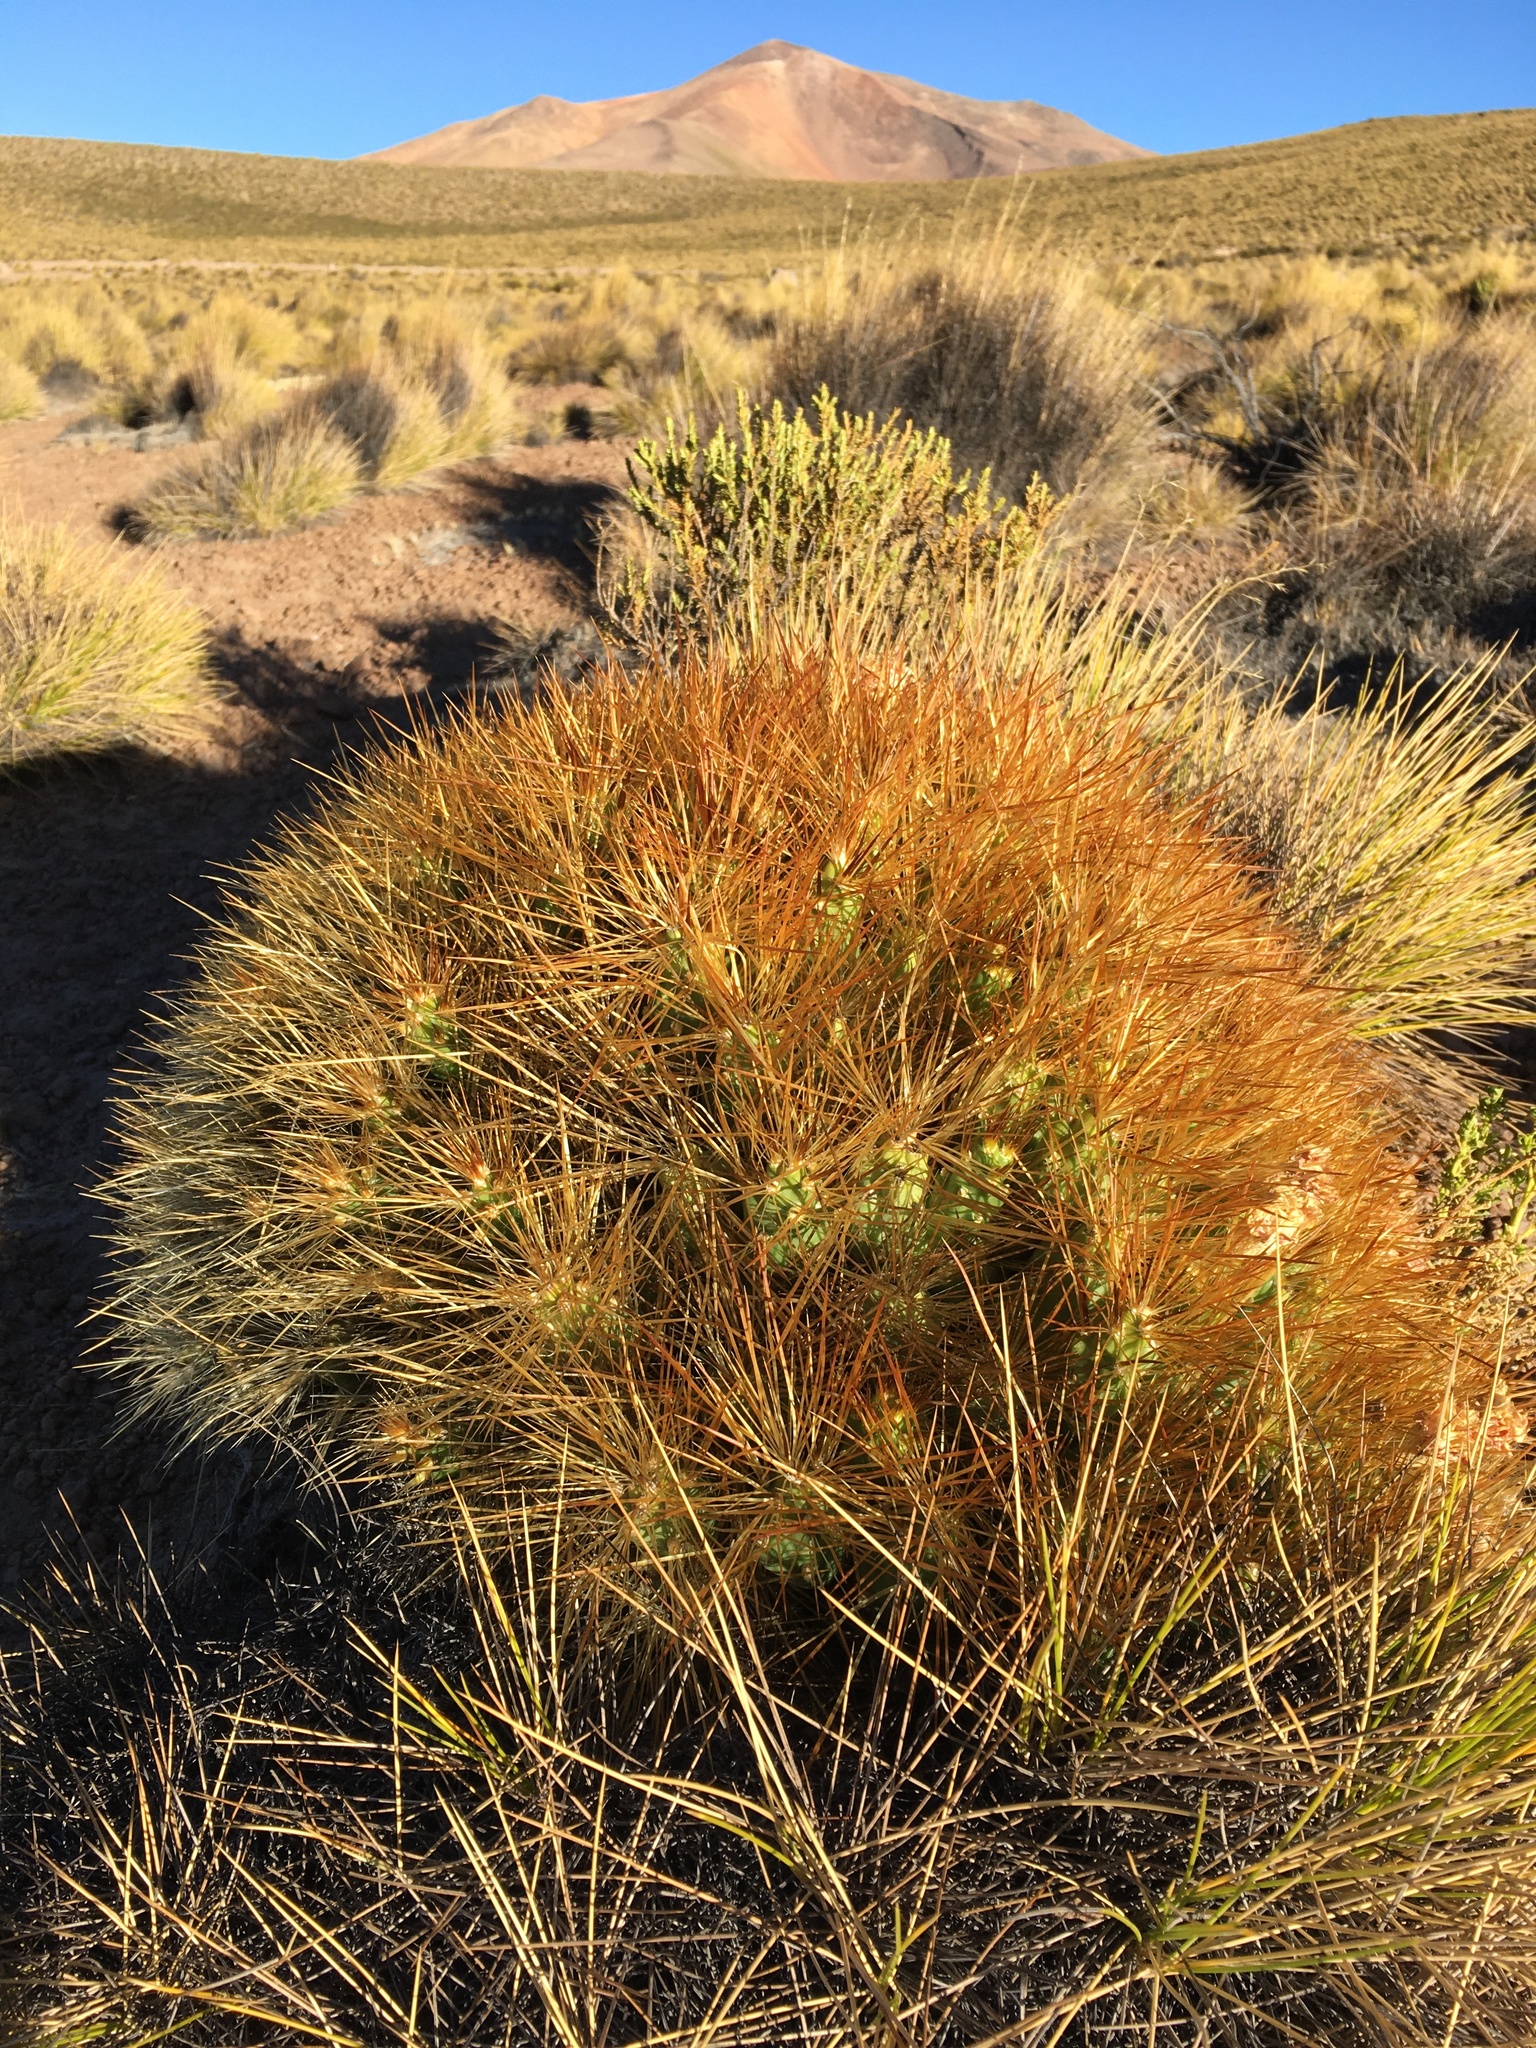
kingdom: Plantae
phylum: Tracheophyta
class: Magnoliopsida
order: Caryophyllales
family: Cactaceae
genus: Cumulopuntia
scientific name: Cumulopuntia boliviana
